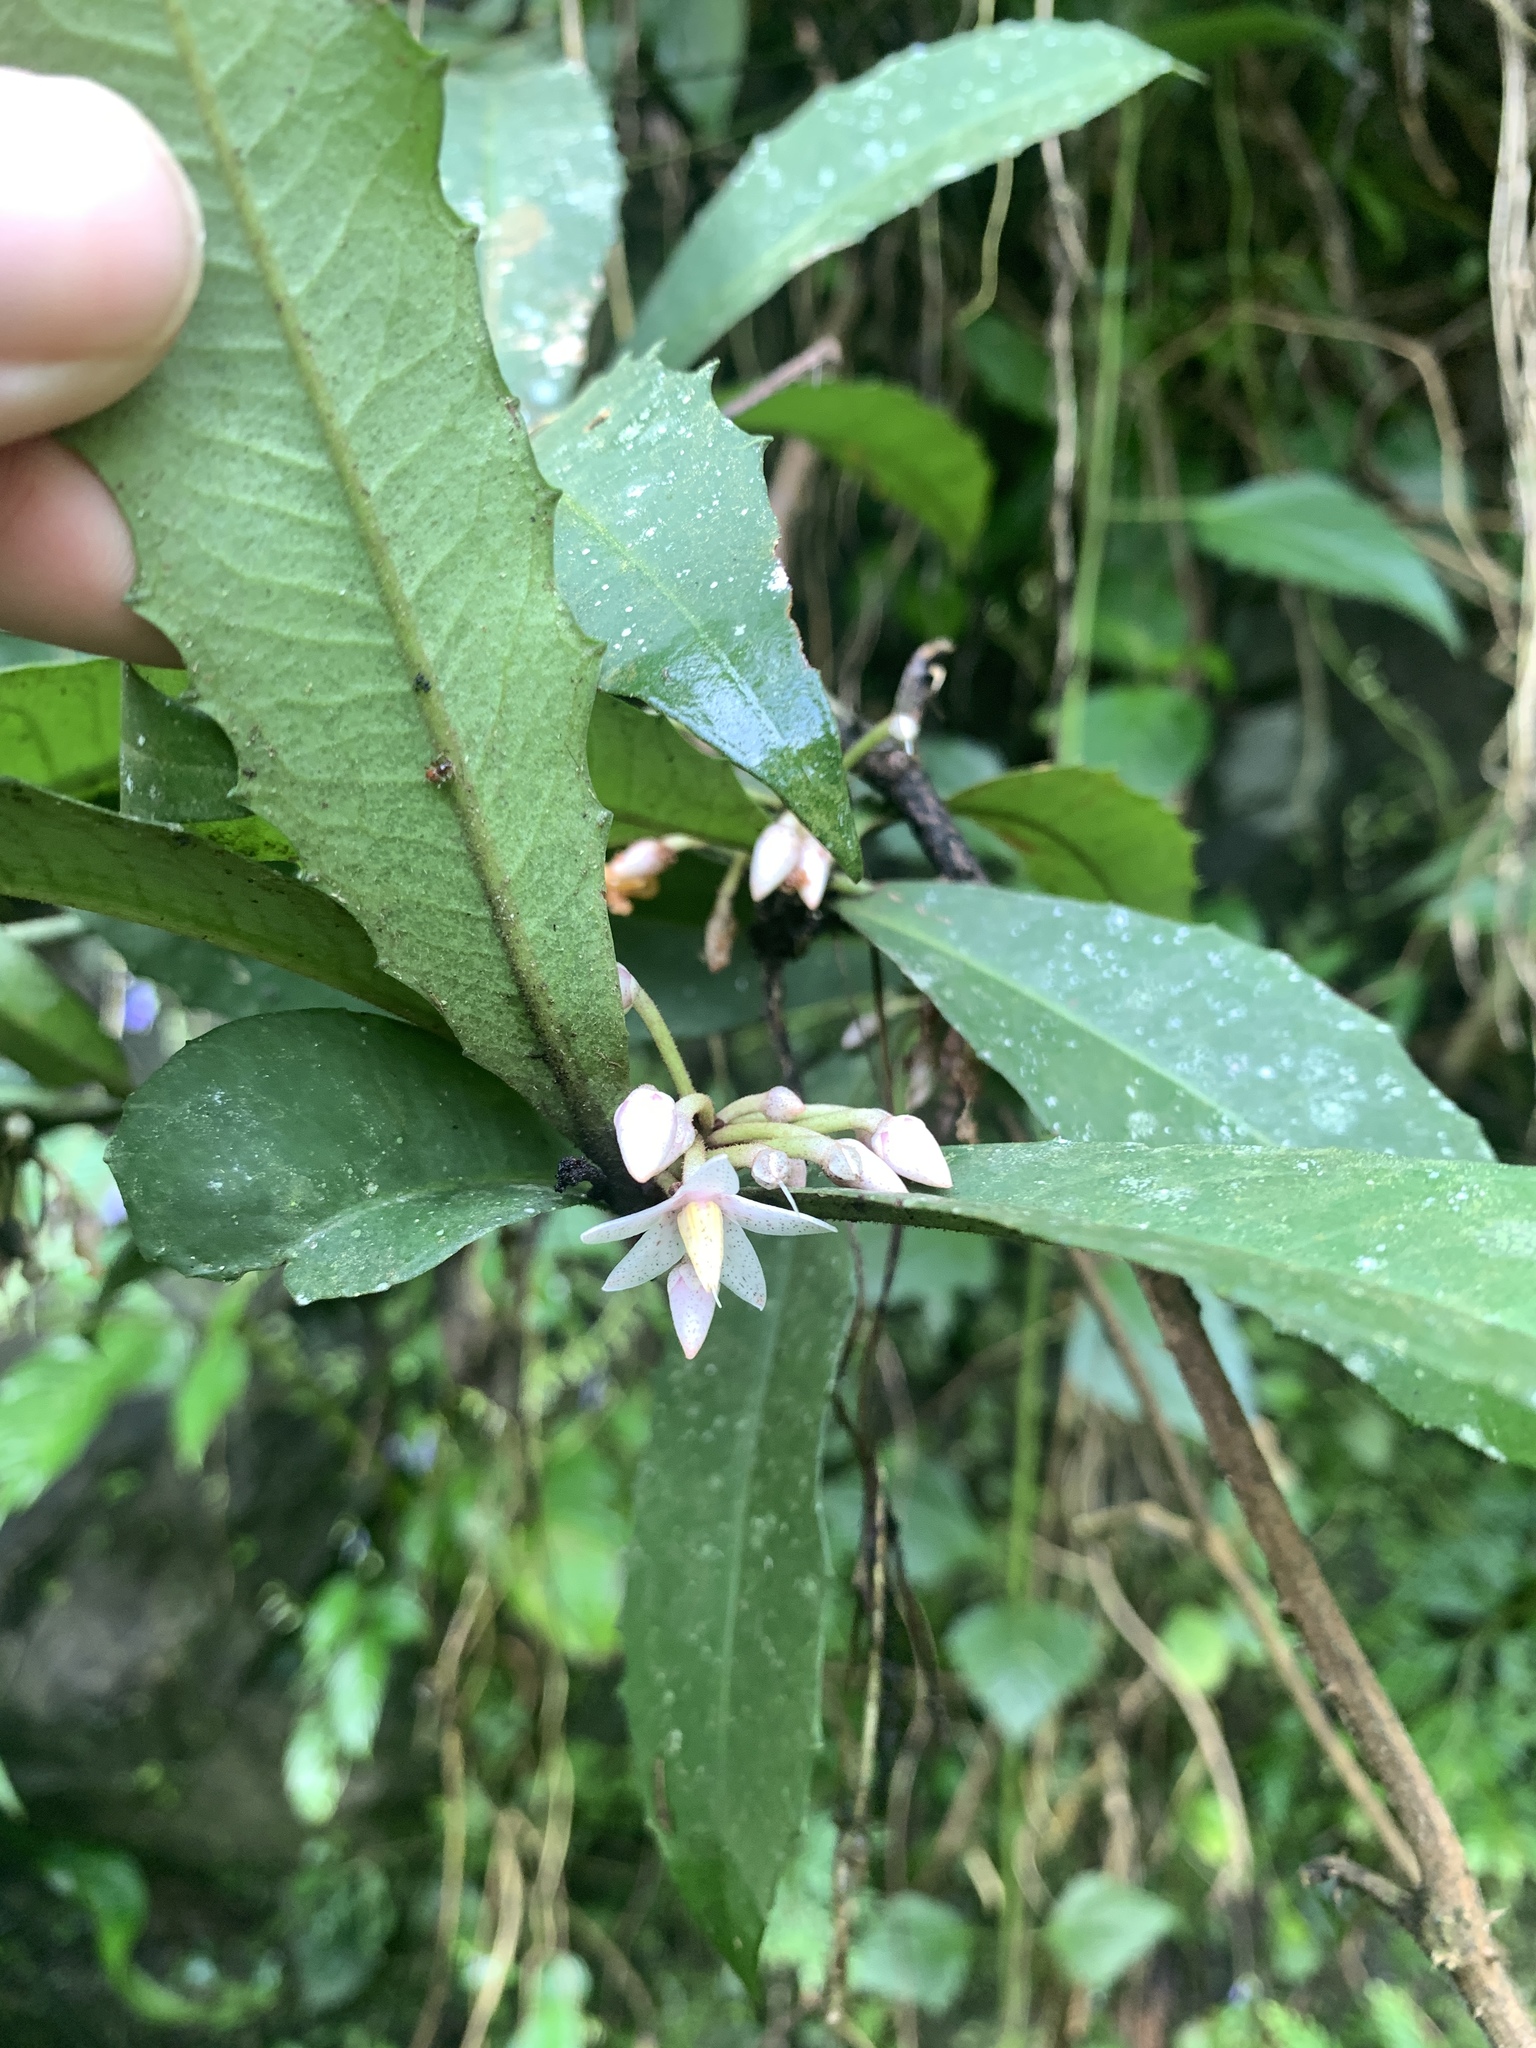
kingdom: Plantae
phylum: Tracheophyta
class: Magnoliopsida
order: Ericales
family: Primulaceae
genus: Ardisia
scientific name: Ardisia cornudentata
